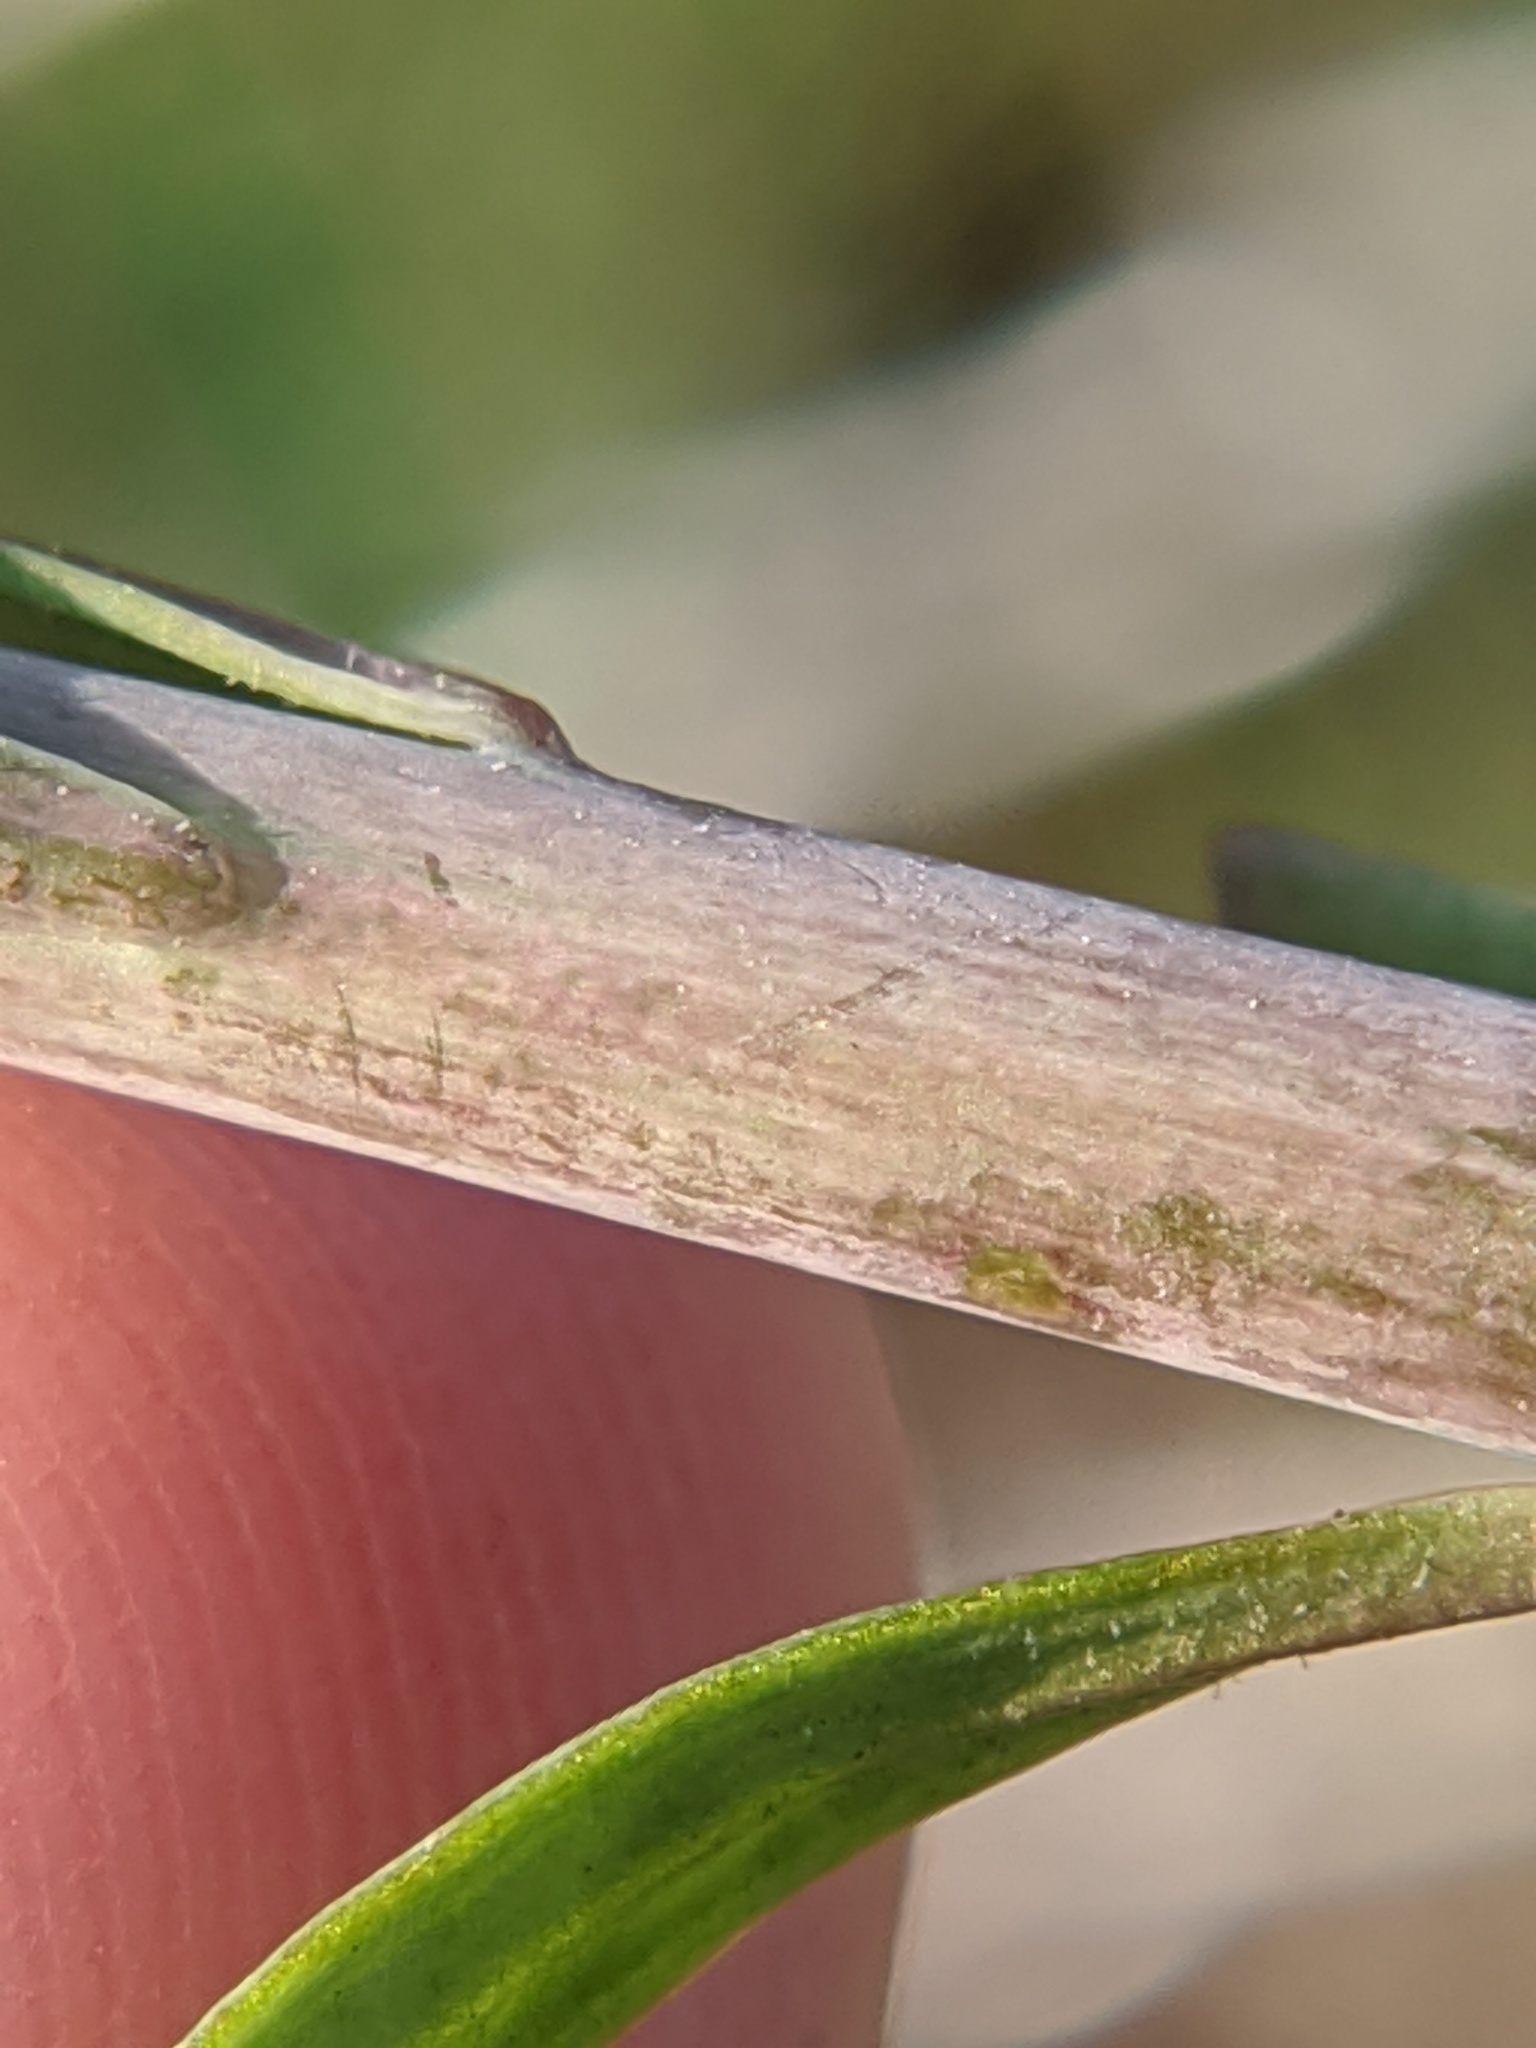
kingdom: Plantae
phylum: Tracheophyta
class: Magnoliopsida
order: Lamiales
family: Plantaginaceae
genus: Linaria
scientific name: Linaria vulgaris
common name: Butter and eggs
